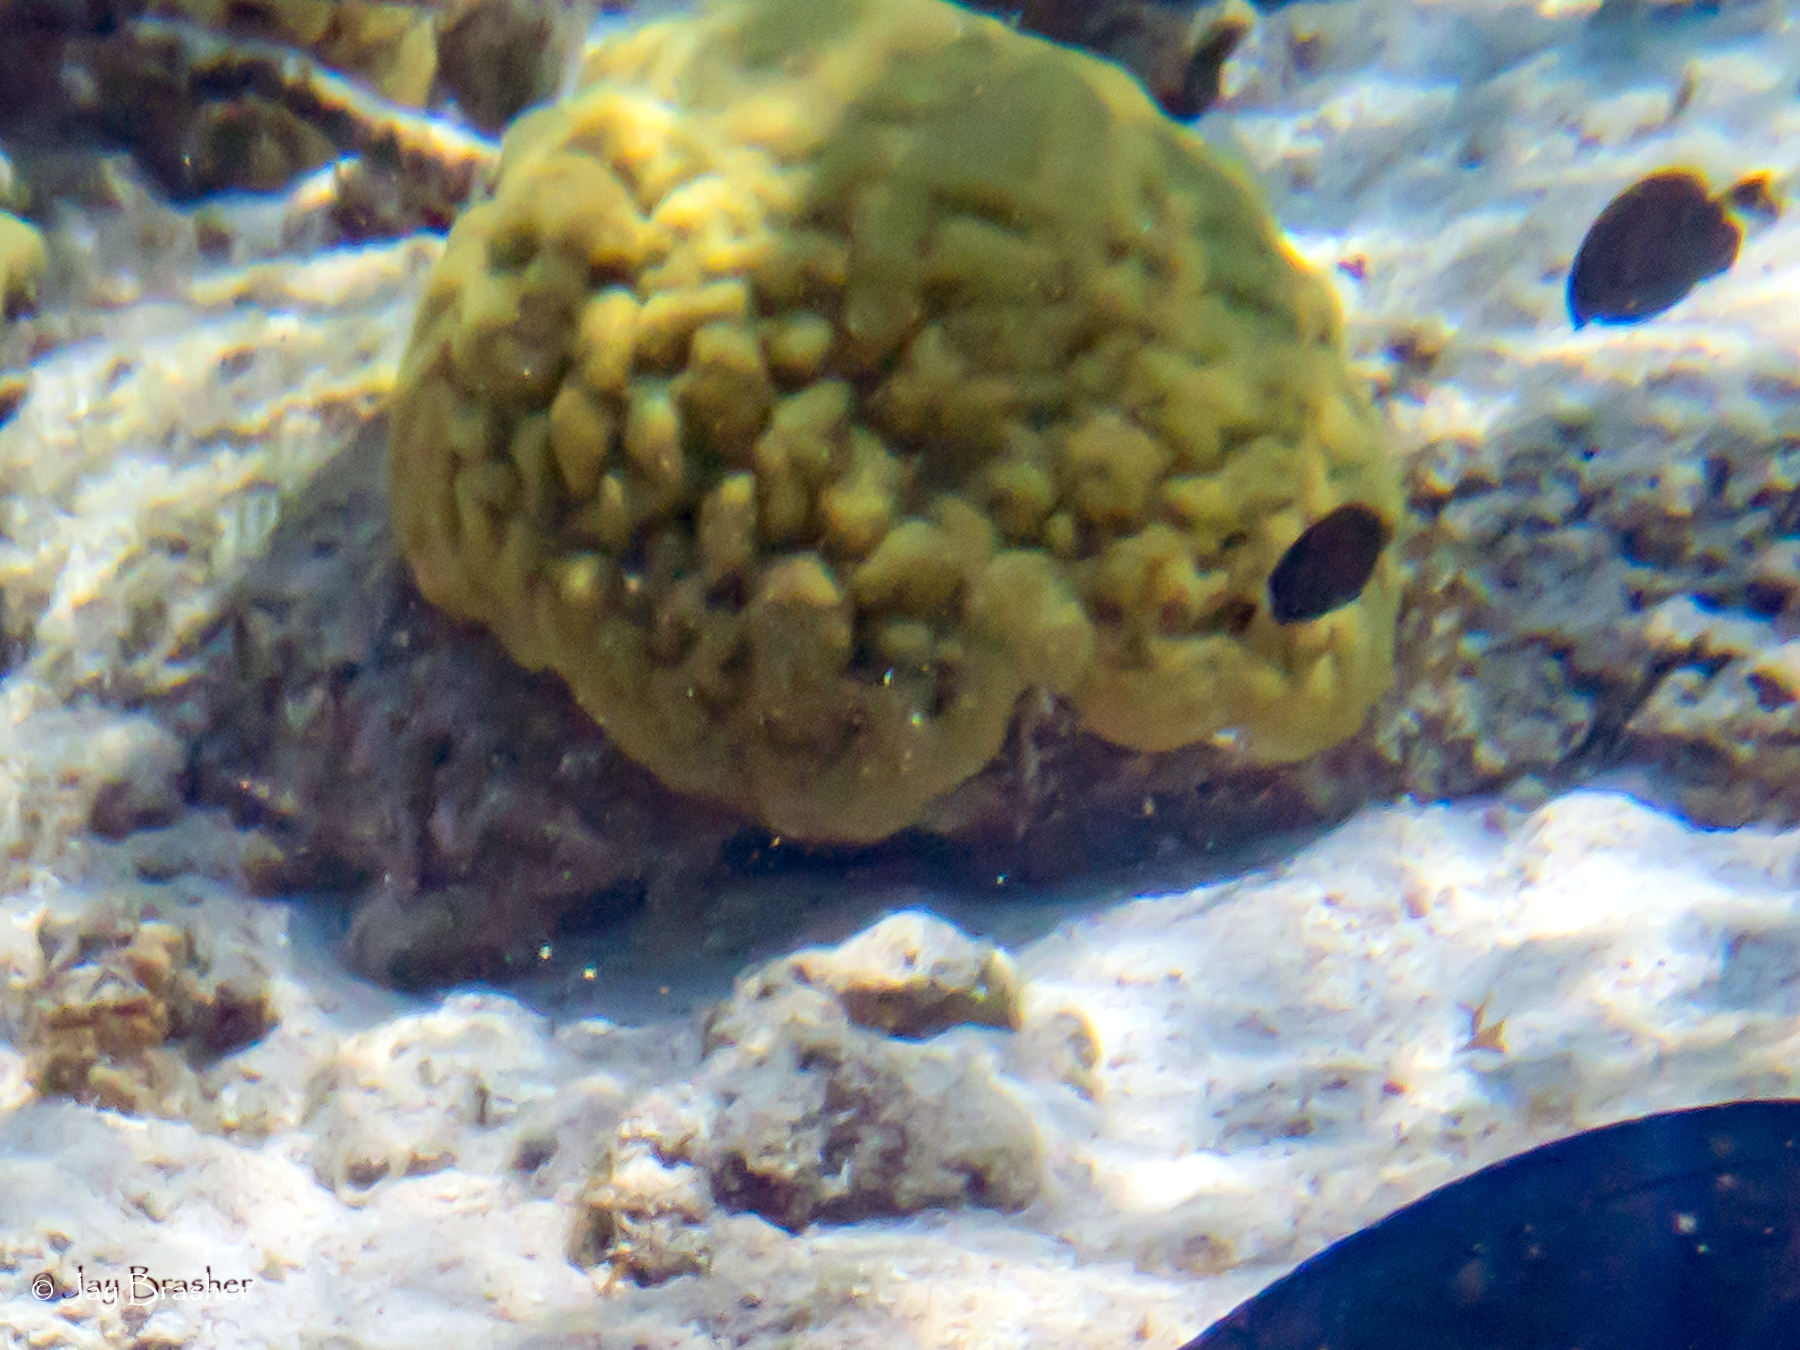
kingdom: Animalia
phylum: Cnidaria
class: Anthozoa
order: Scleractinia
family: Poritidae
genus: Porites
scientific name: Porites astreoides
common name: Mustard hill coral
